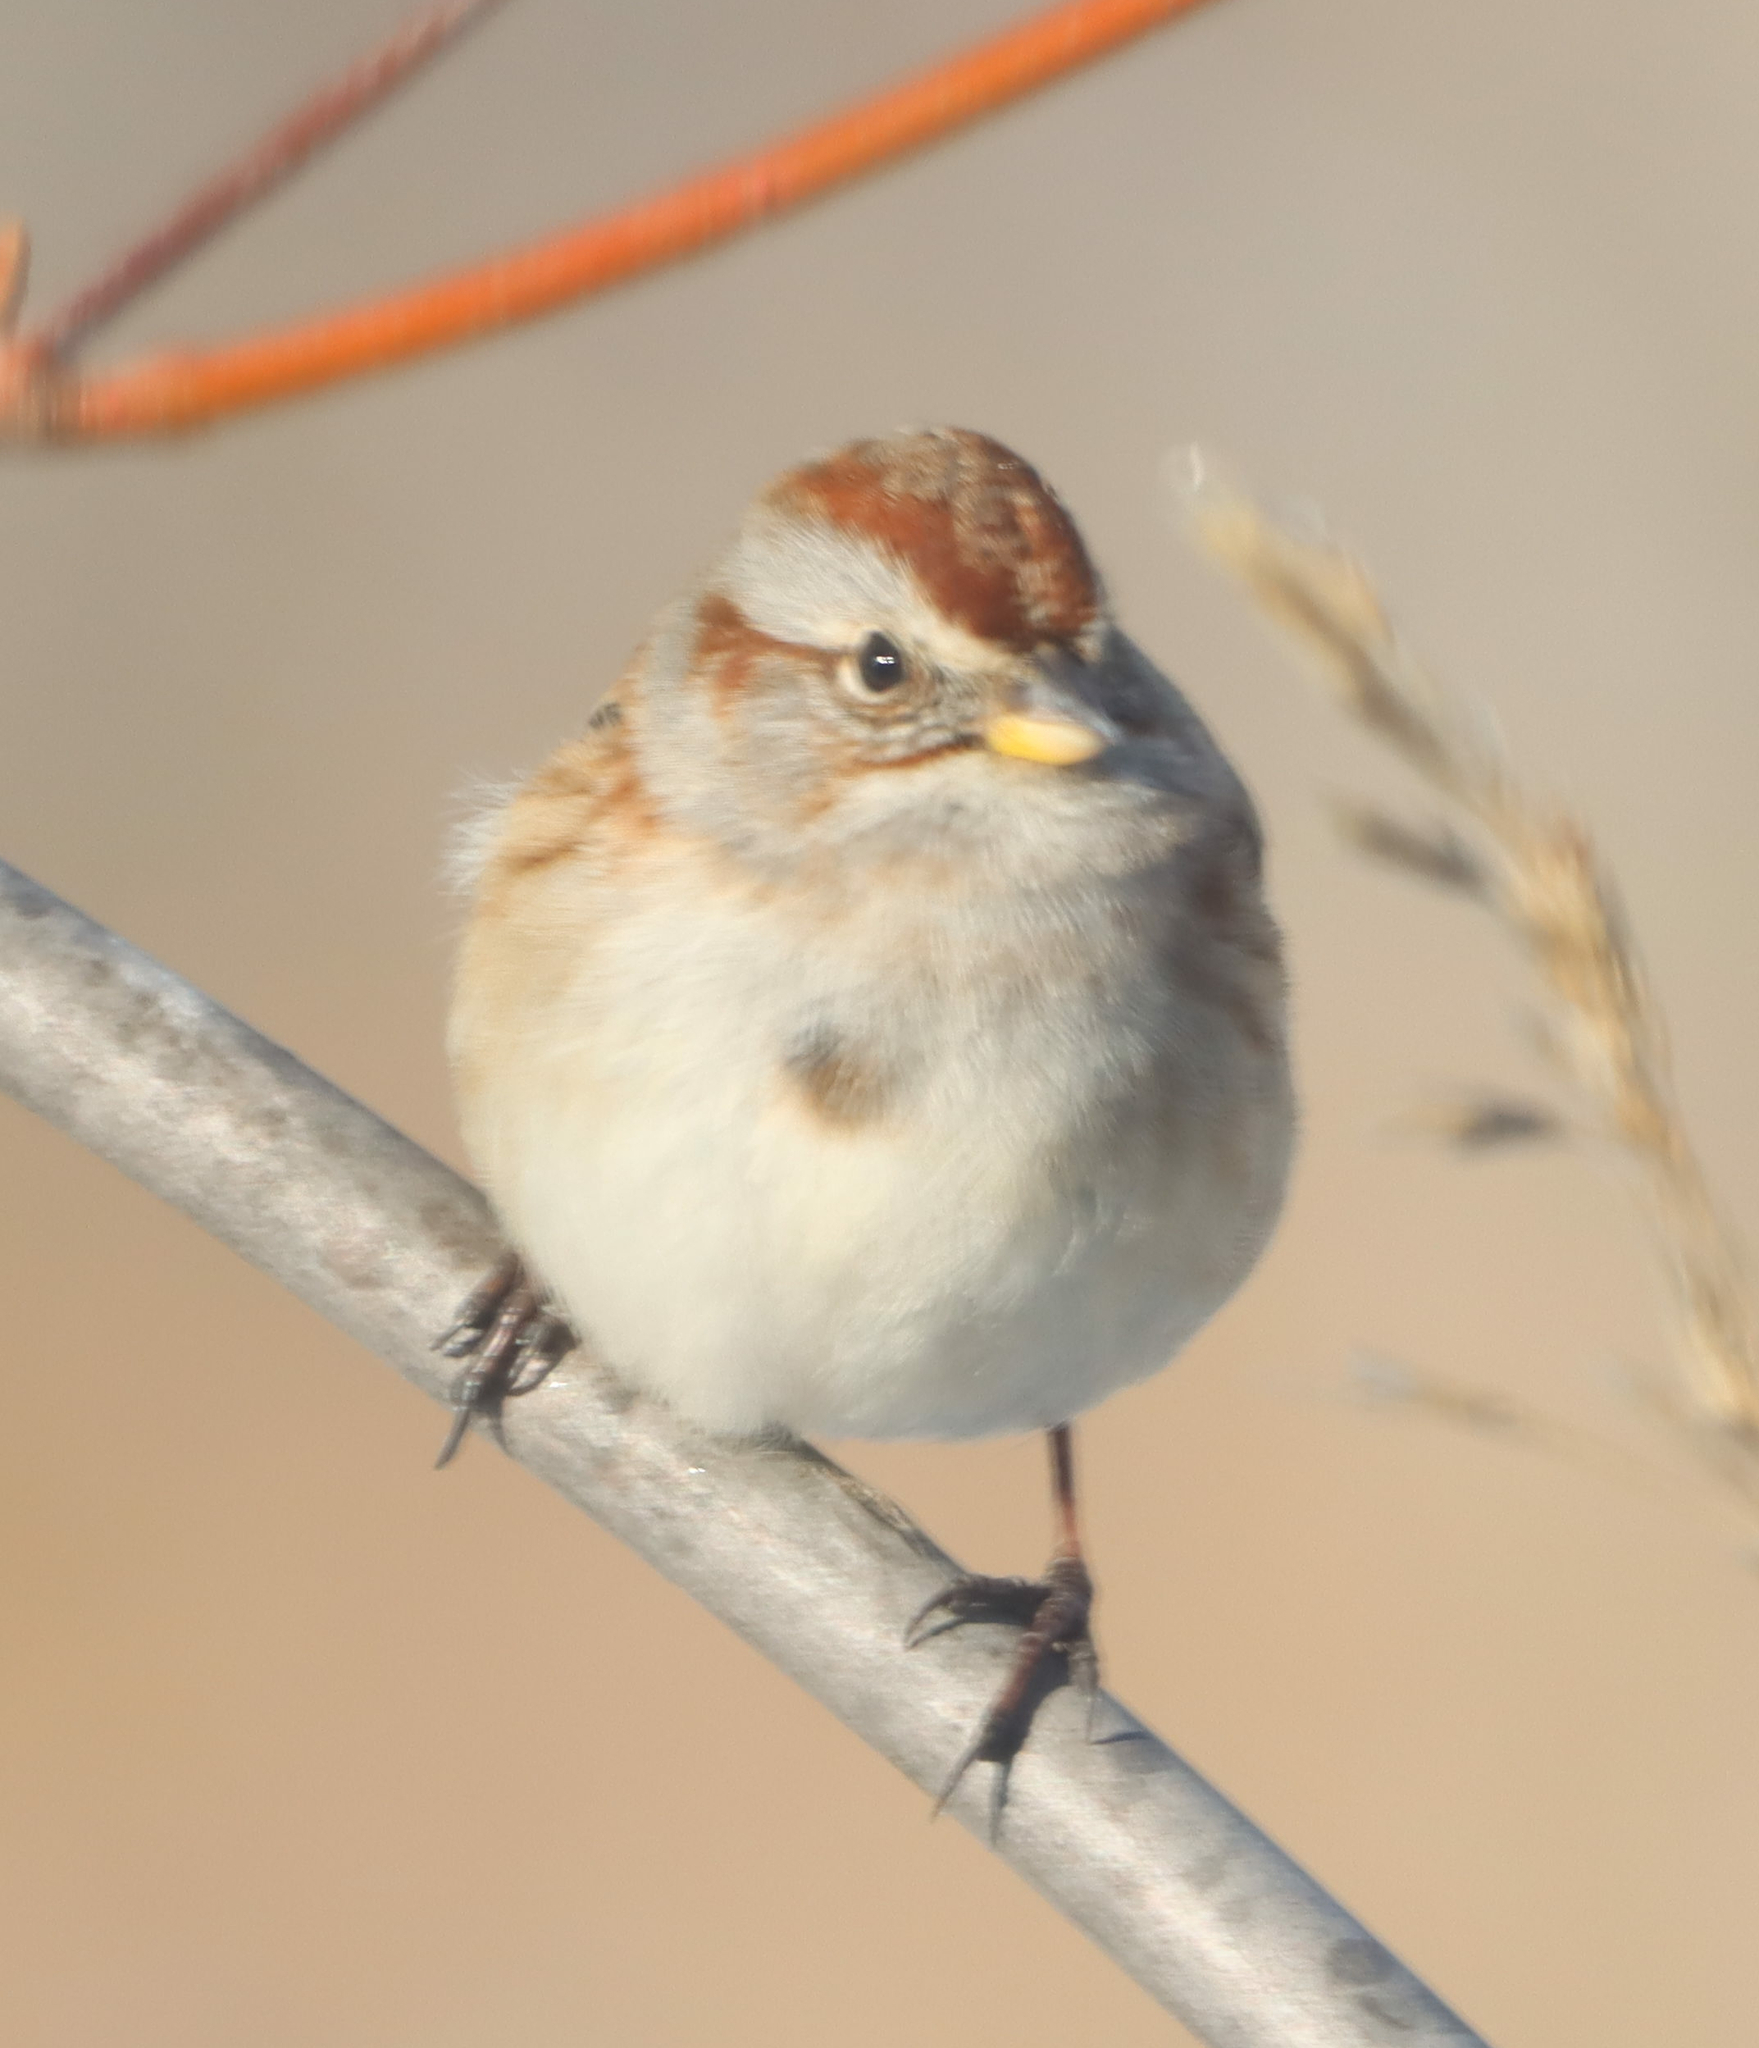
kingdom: Animalia
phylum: Chordata
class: Aves
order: Passeriformes
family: Passerellidae
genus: Spizelloides
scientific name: Spizelloides arborea
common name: American tree sparrow
